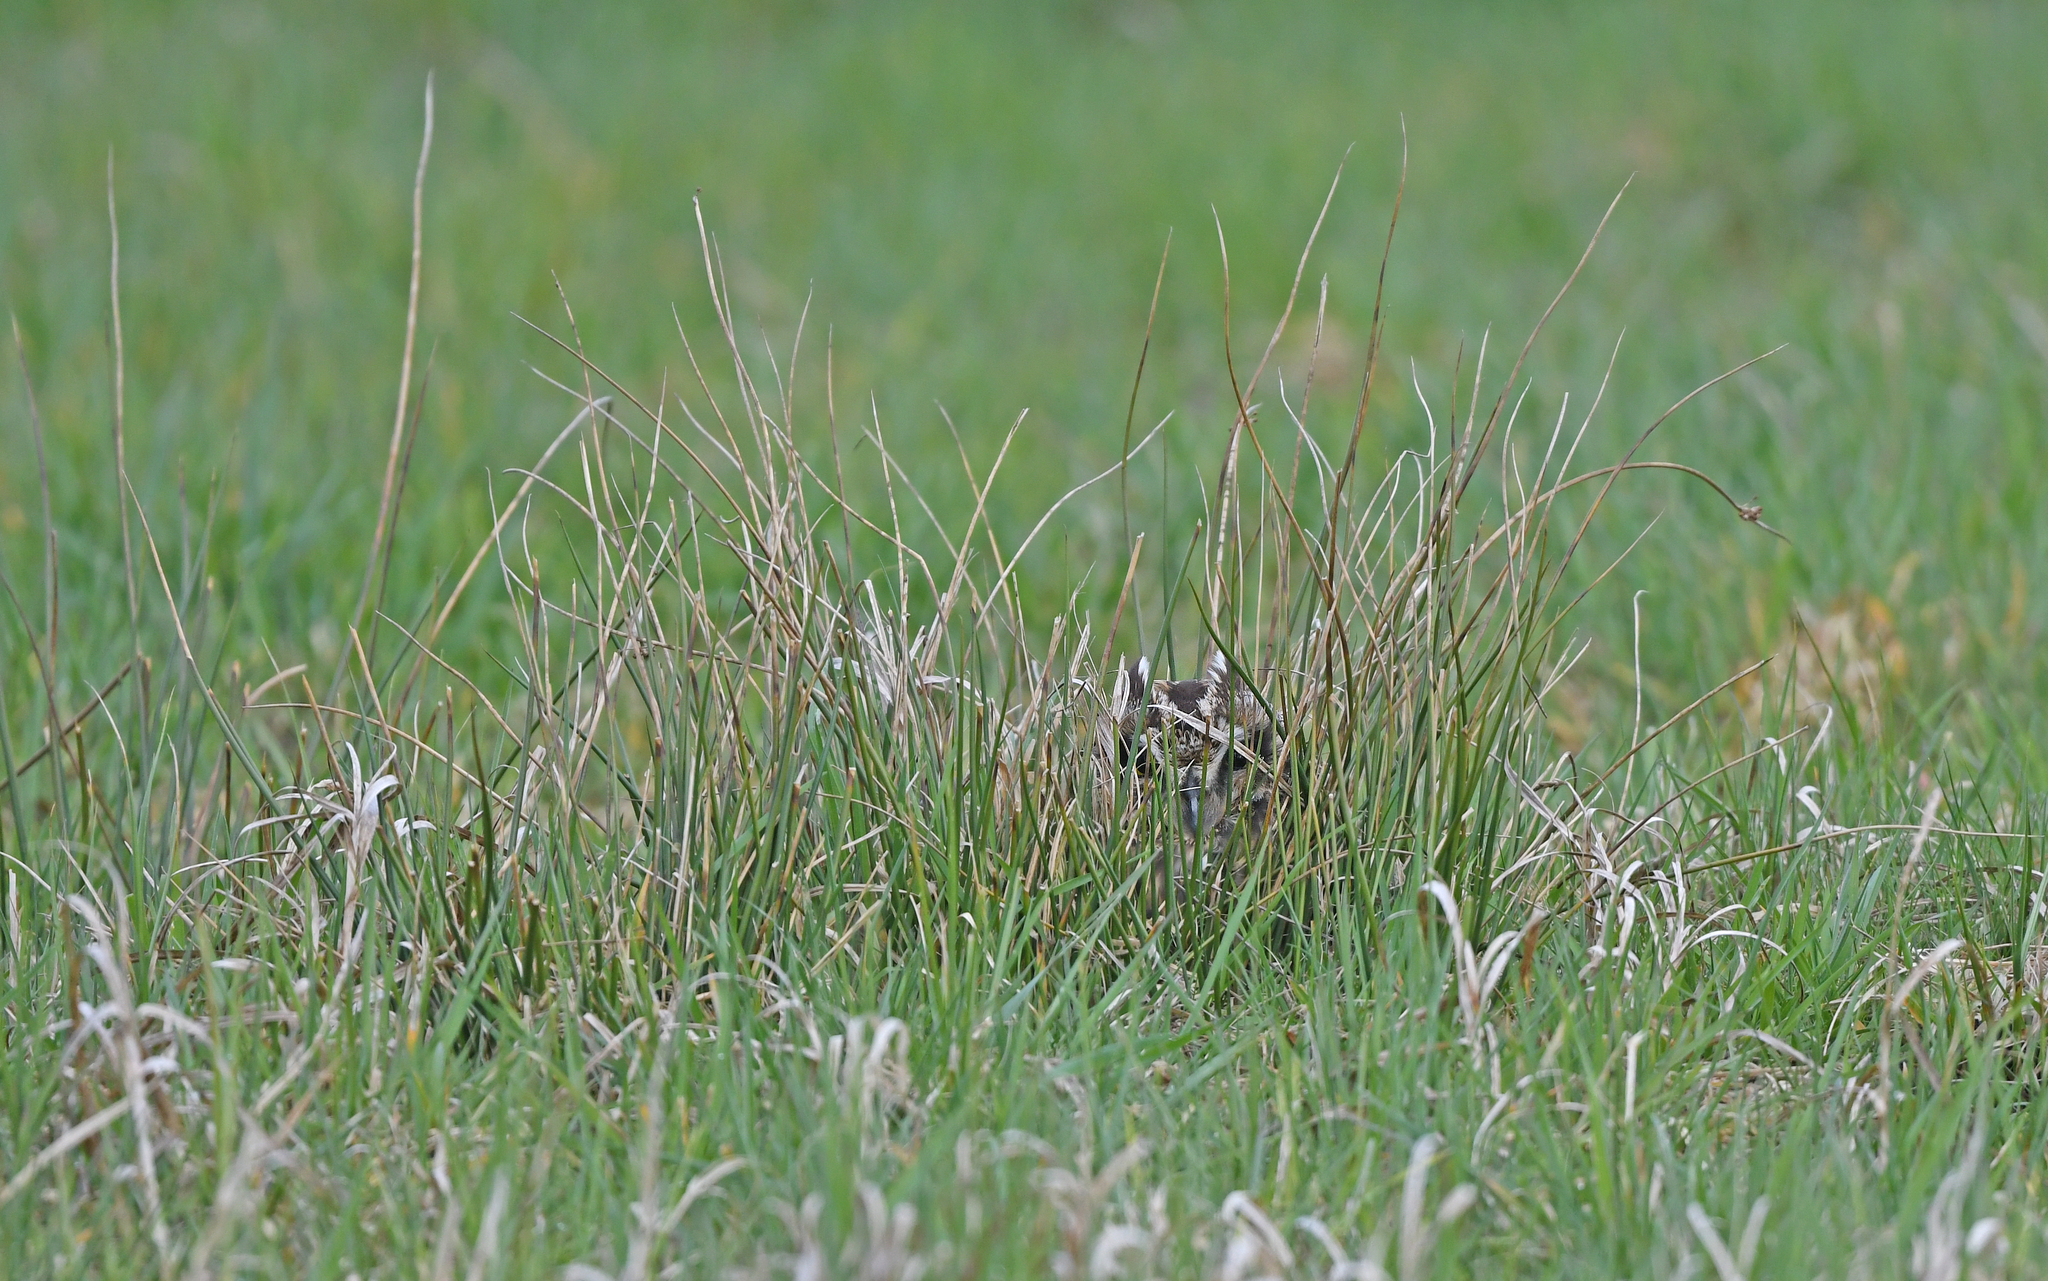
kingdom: Animalia
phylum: Chordata
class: Aves
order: Strigiformes
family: Strigidae
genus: Asio
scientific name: Asio flammeus
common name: Short-eared owl
